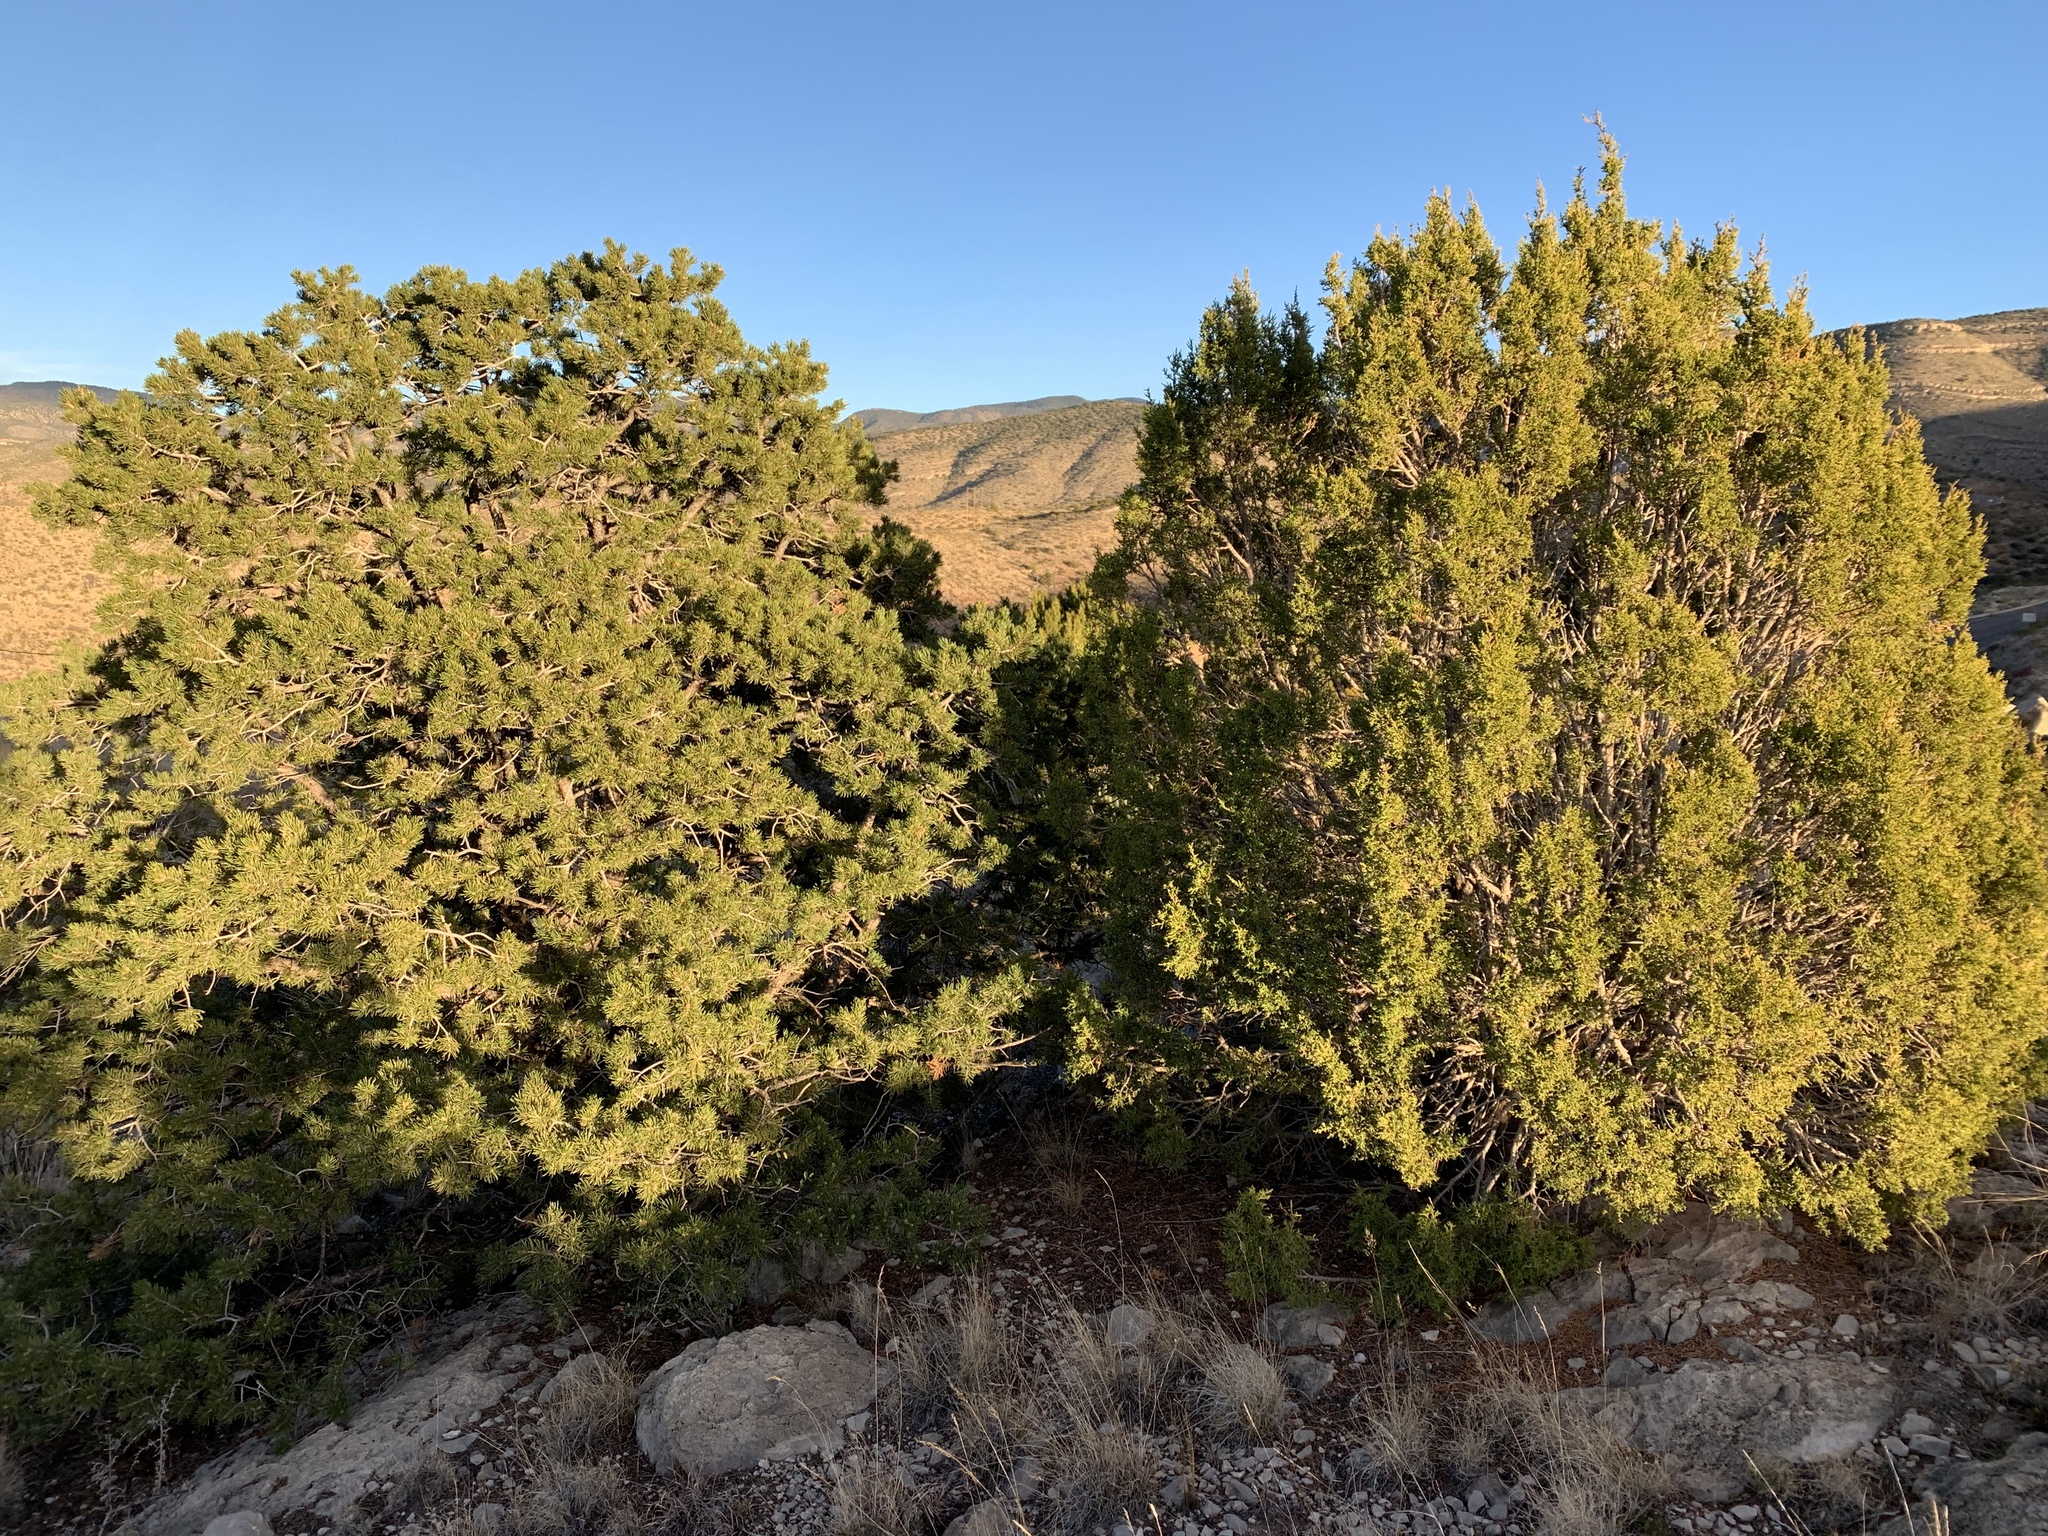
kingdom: Plantae
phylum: Tracheophyta
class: Pinopsida
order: Pinales
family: Cupressaceae
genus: Juniperus
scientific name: Juniperus monosperma
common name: One-seed juniper
